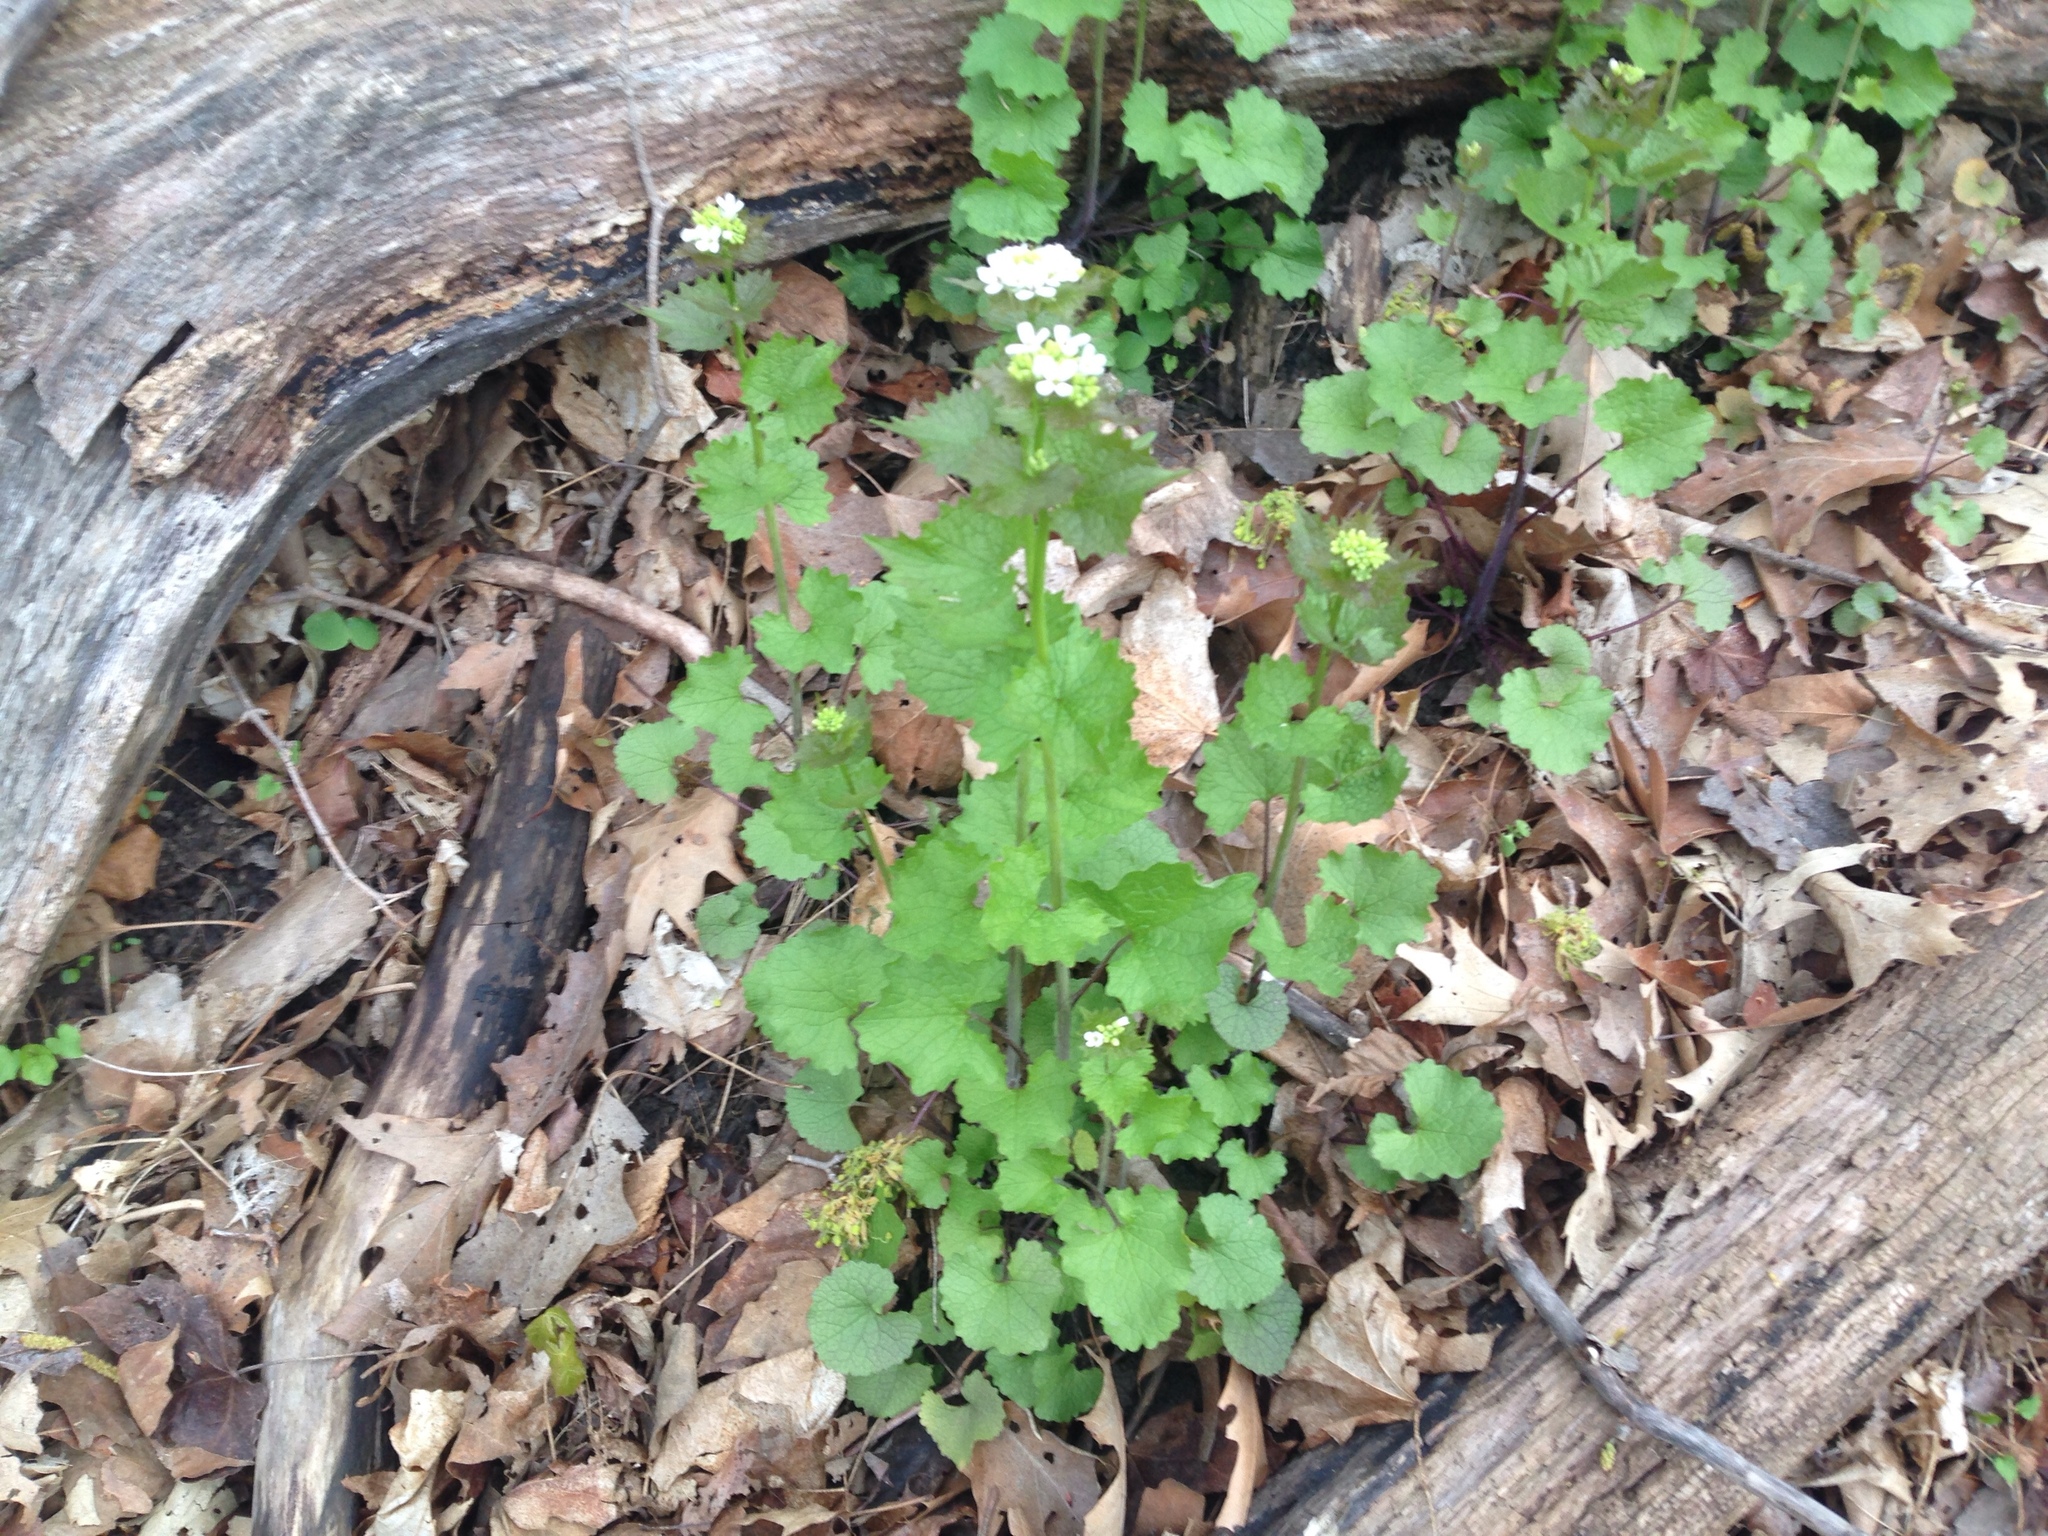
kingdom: Plantae
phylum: Tracheophyta
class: Magnoliopsida
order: Brassicales
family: Brassicaceae
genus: Alliaria
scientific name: Alliaria petiolata
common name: Garlic mustard
